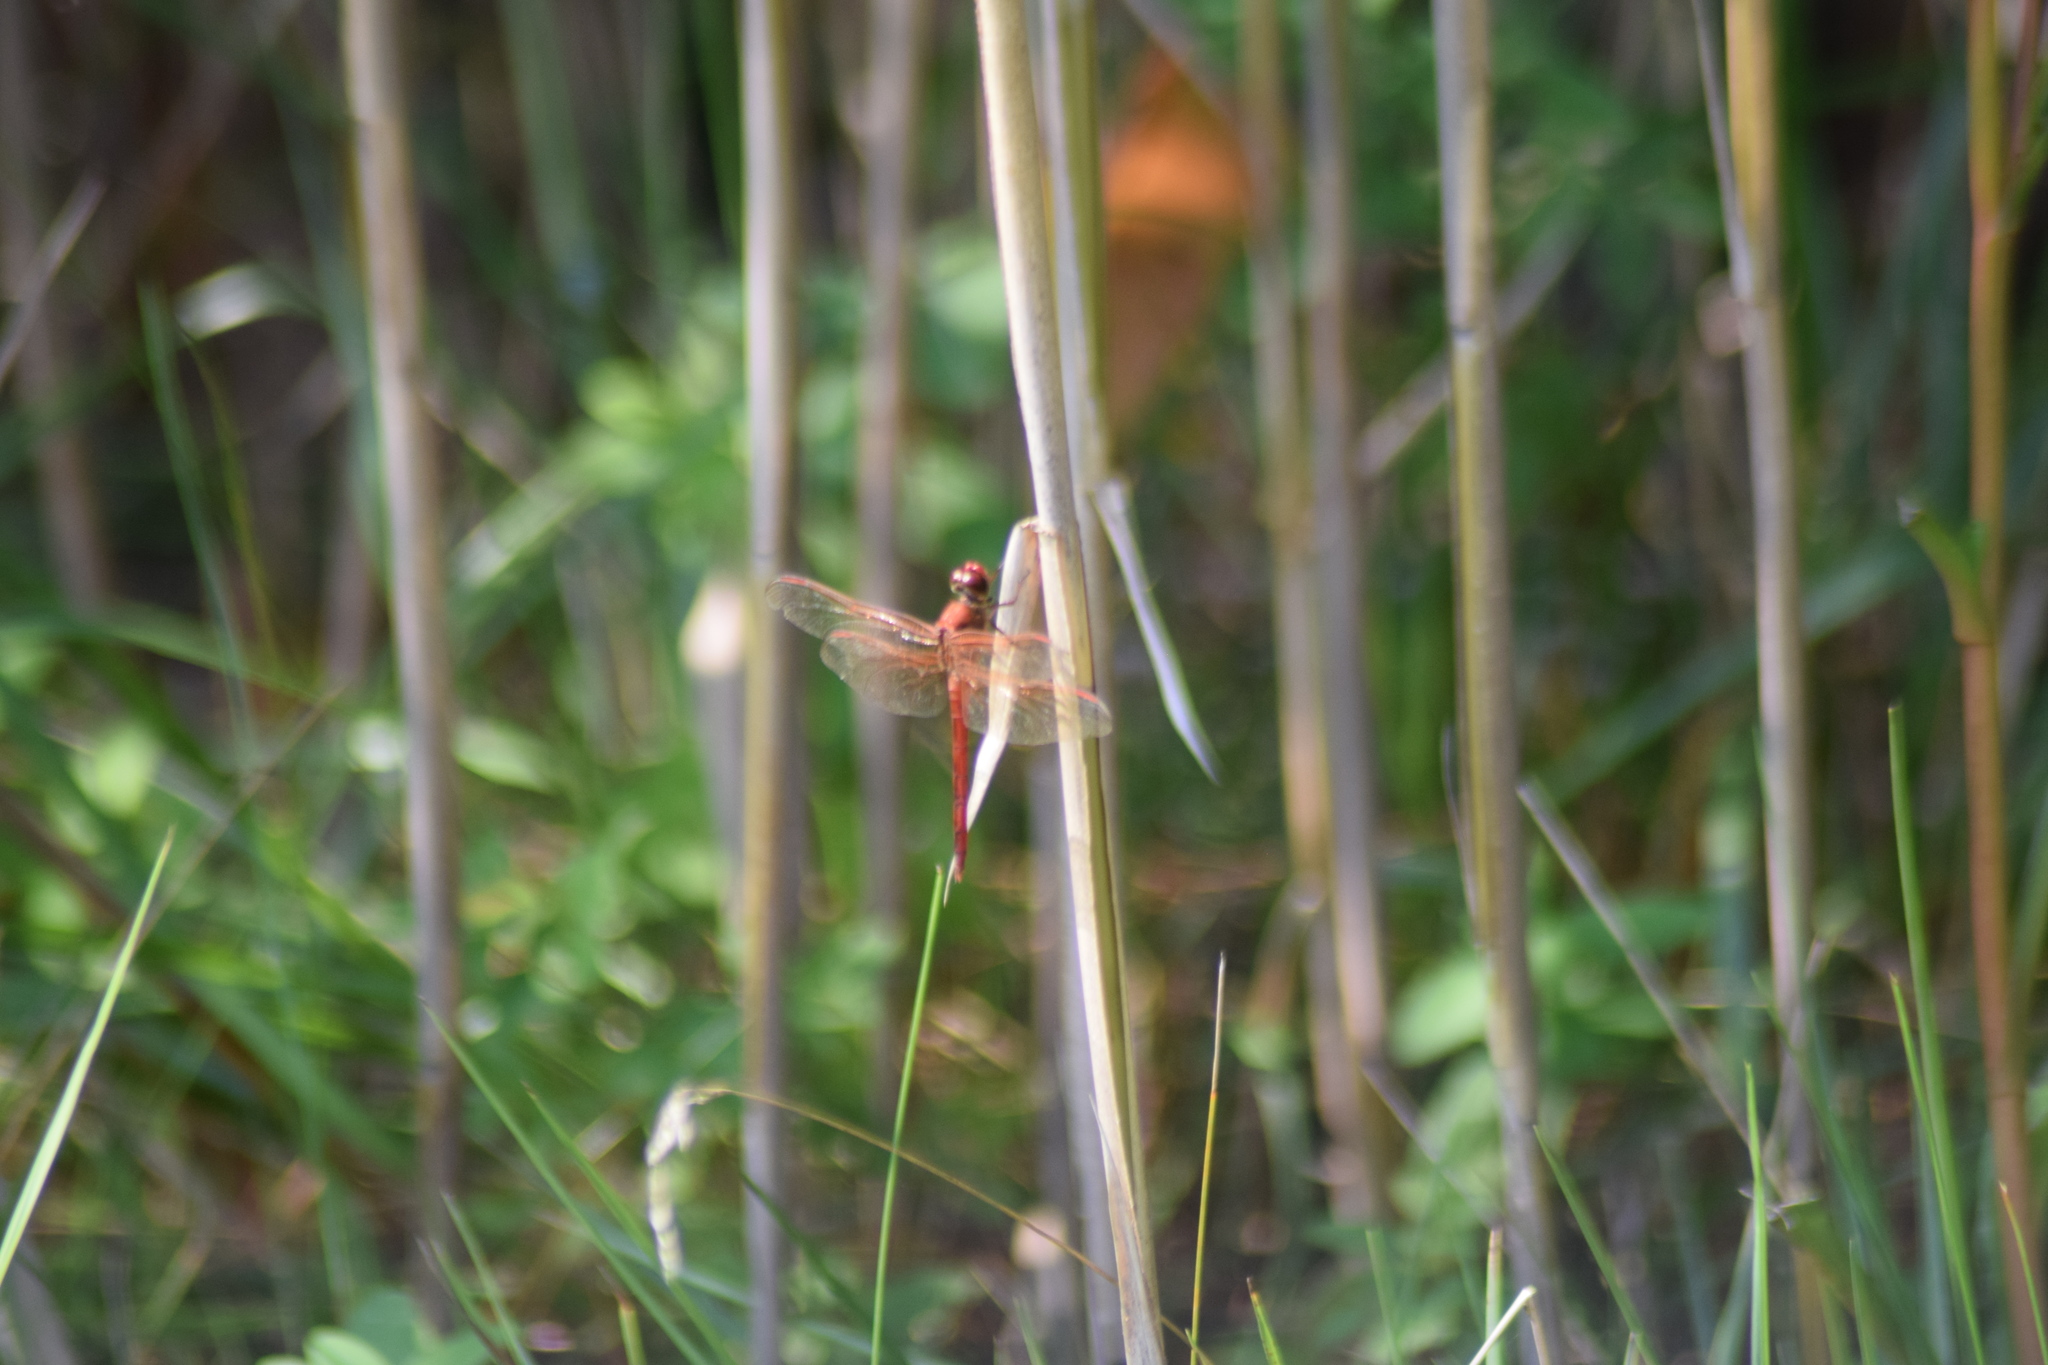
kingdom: Animalia
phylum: Arthropoda
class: Insecta
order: Odonata
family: Libellulidae
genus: Libellula
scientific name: Libellula needhami
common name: Needham's skimmer
